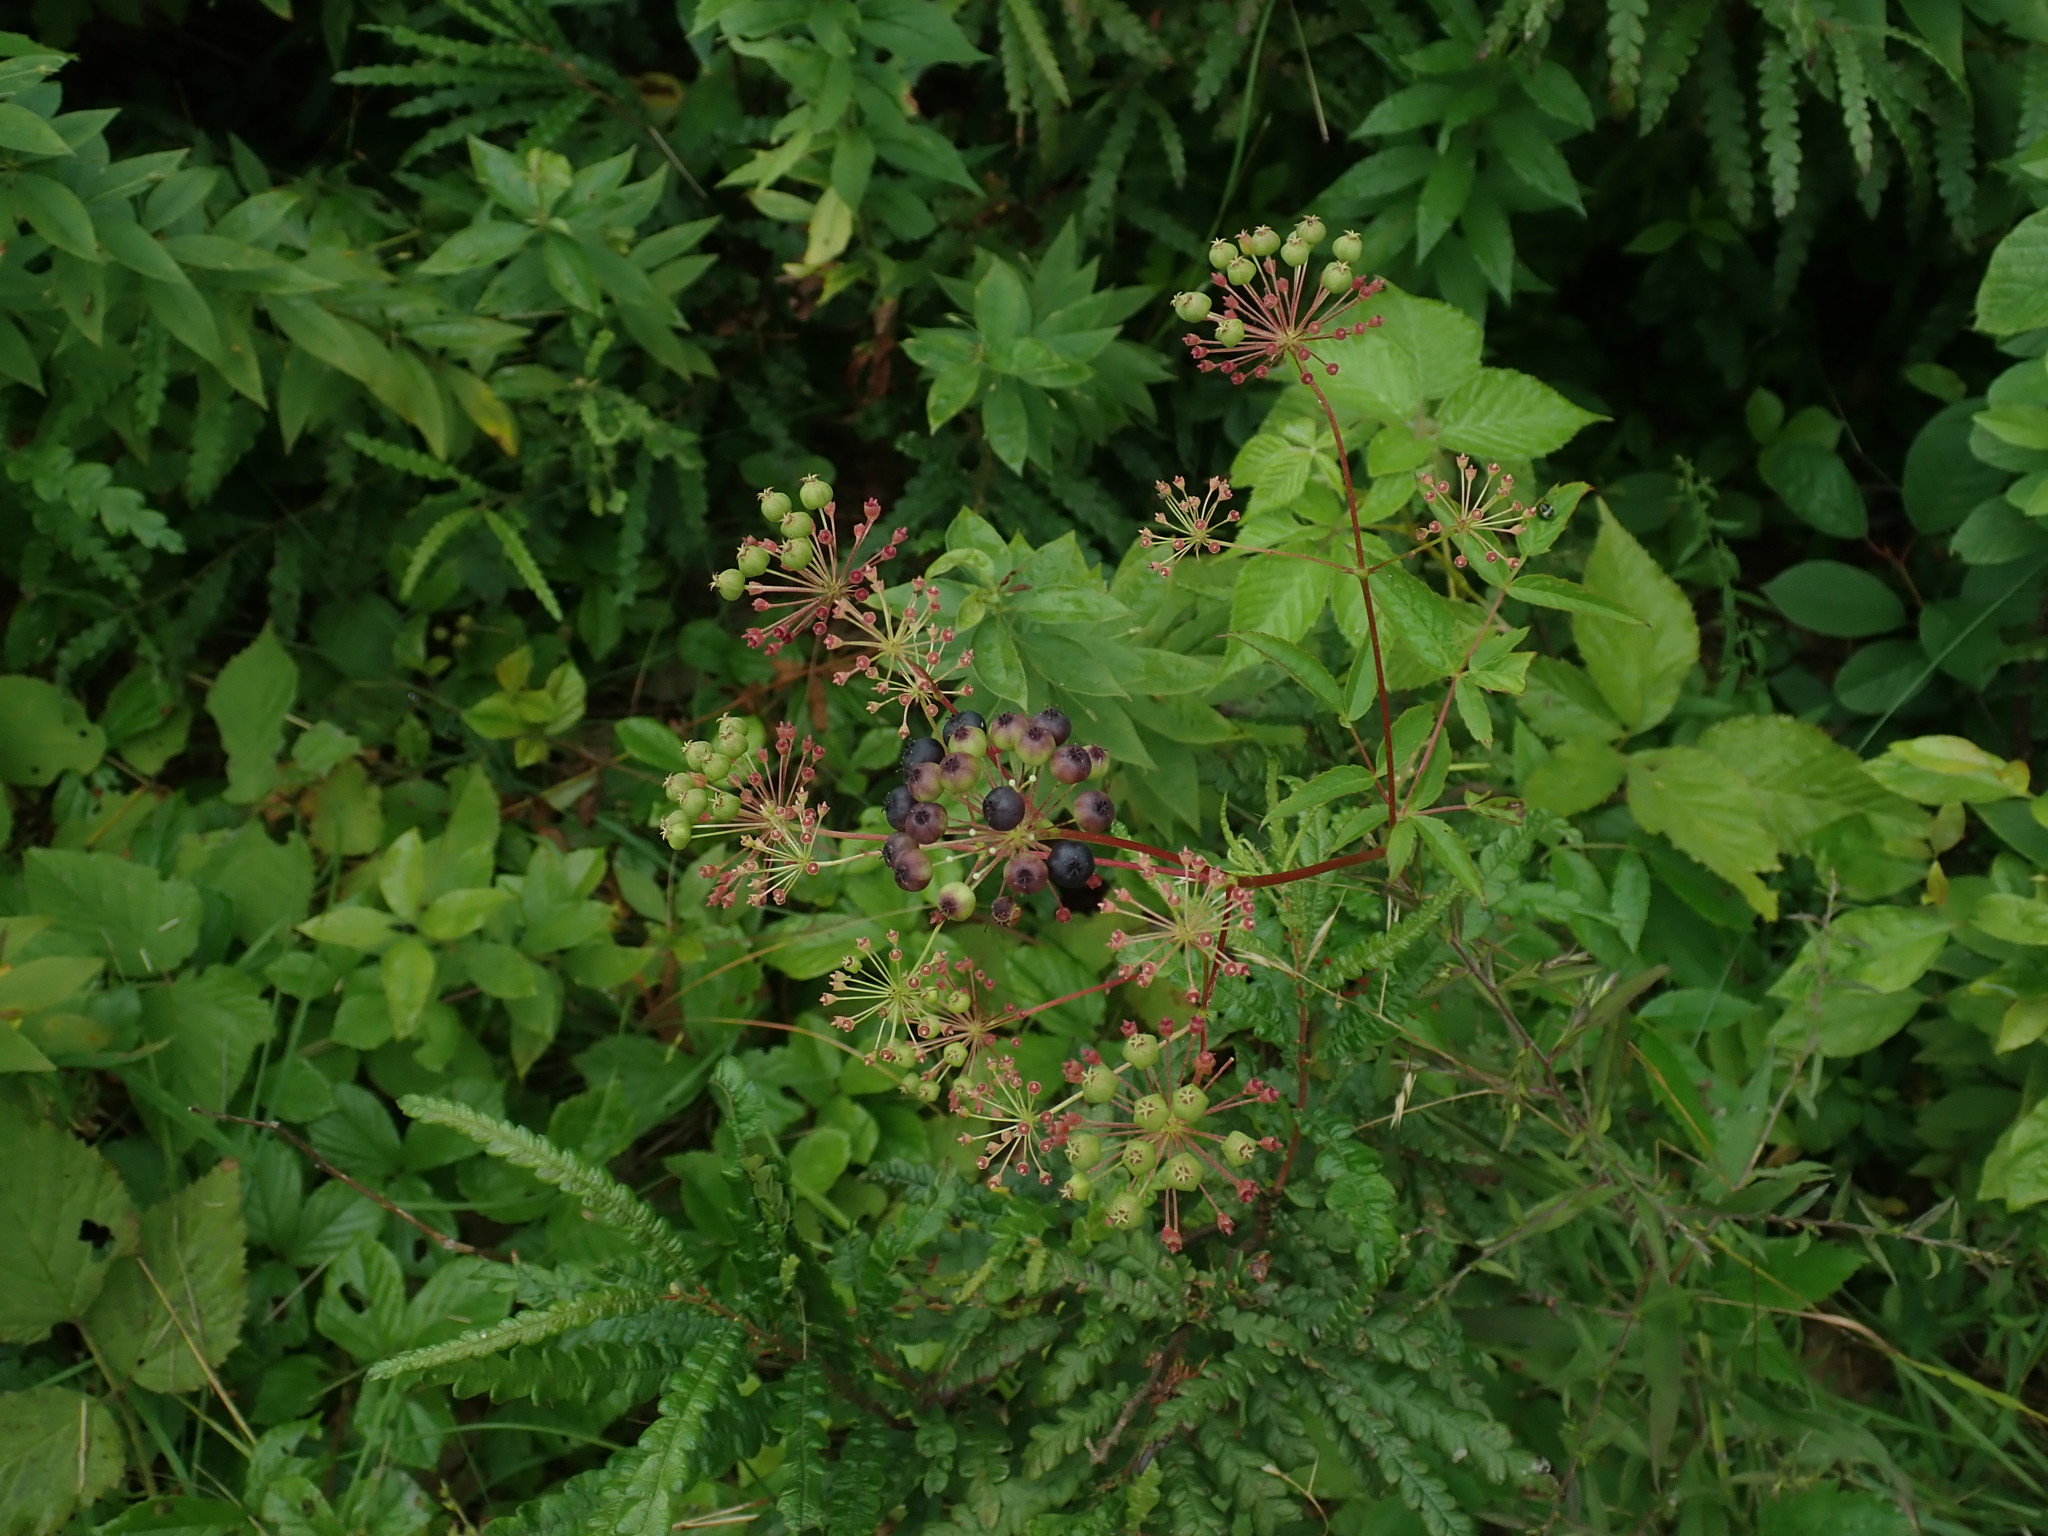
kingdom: Plantae
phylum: Tracheophyta
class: Magnoliopsida
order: Apiales
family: Araliaceae
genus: Aralia
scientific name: Aralia hispida
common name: Bristly sarsaparilla
